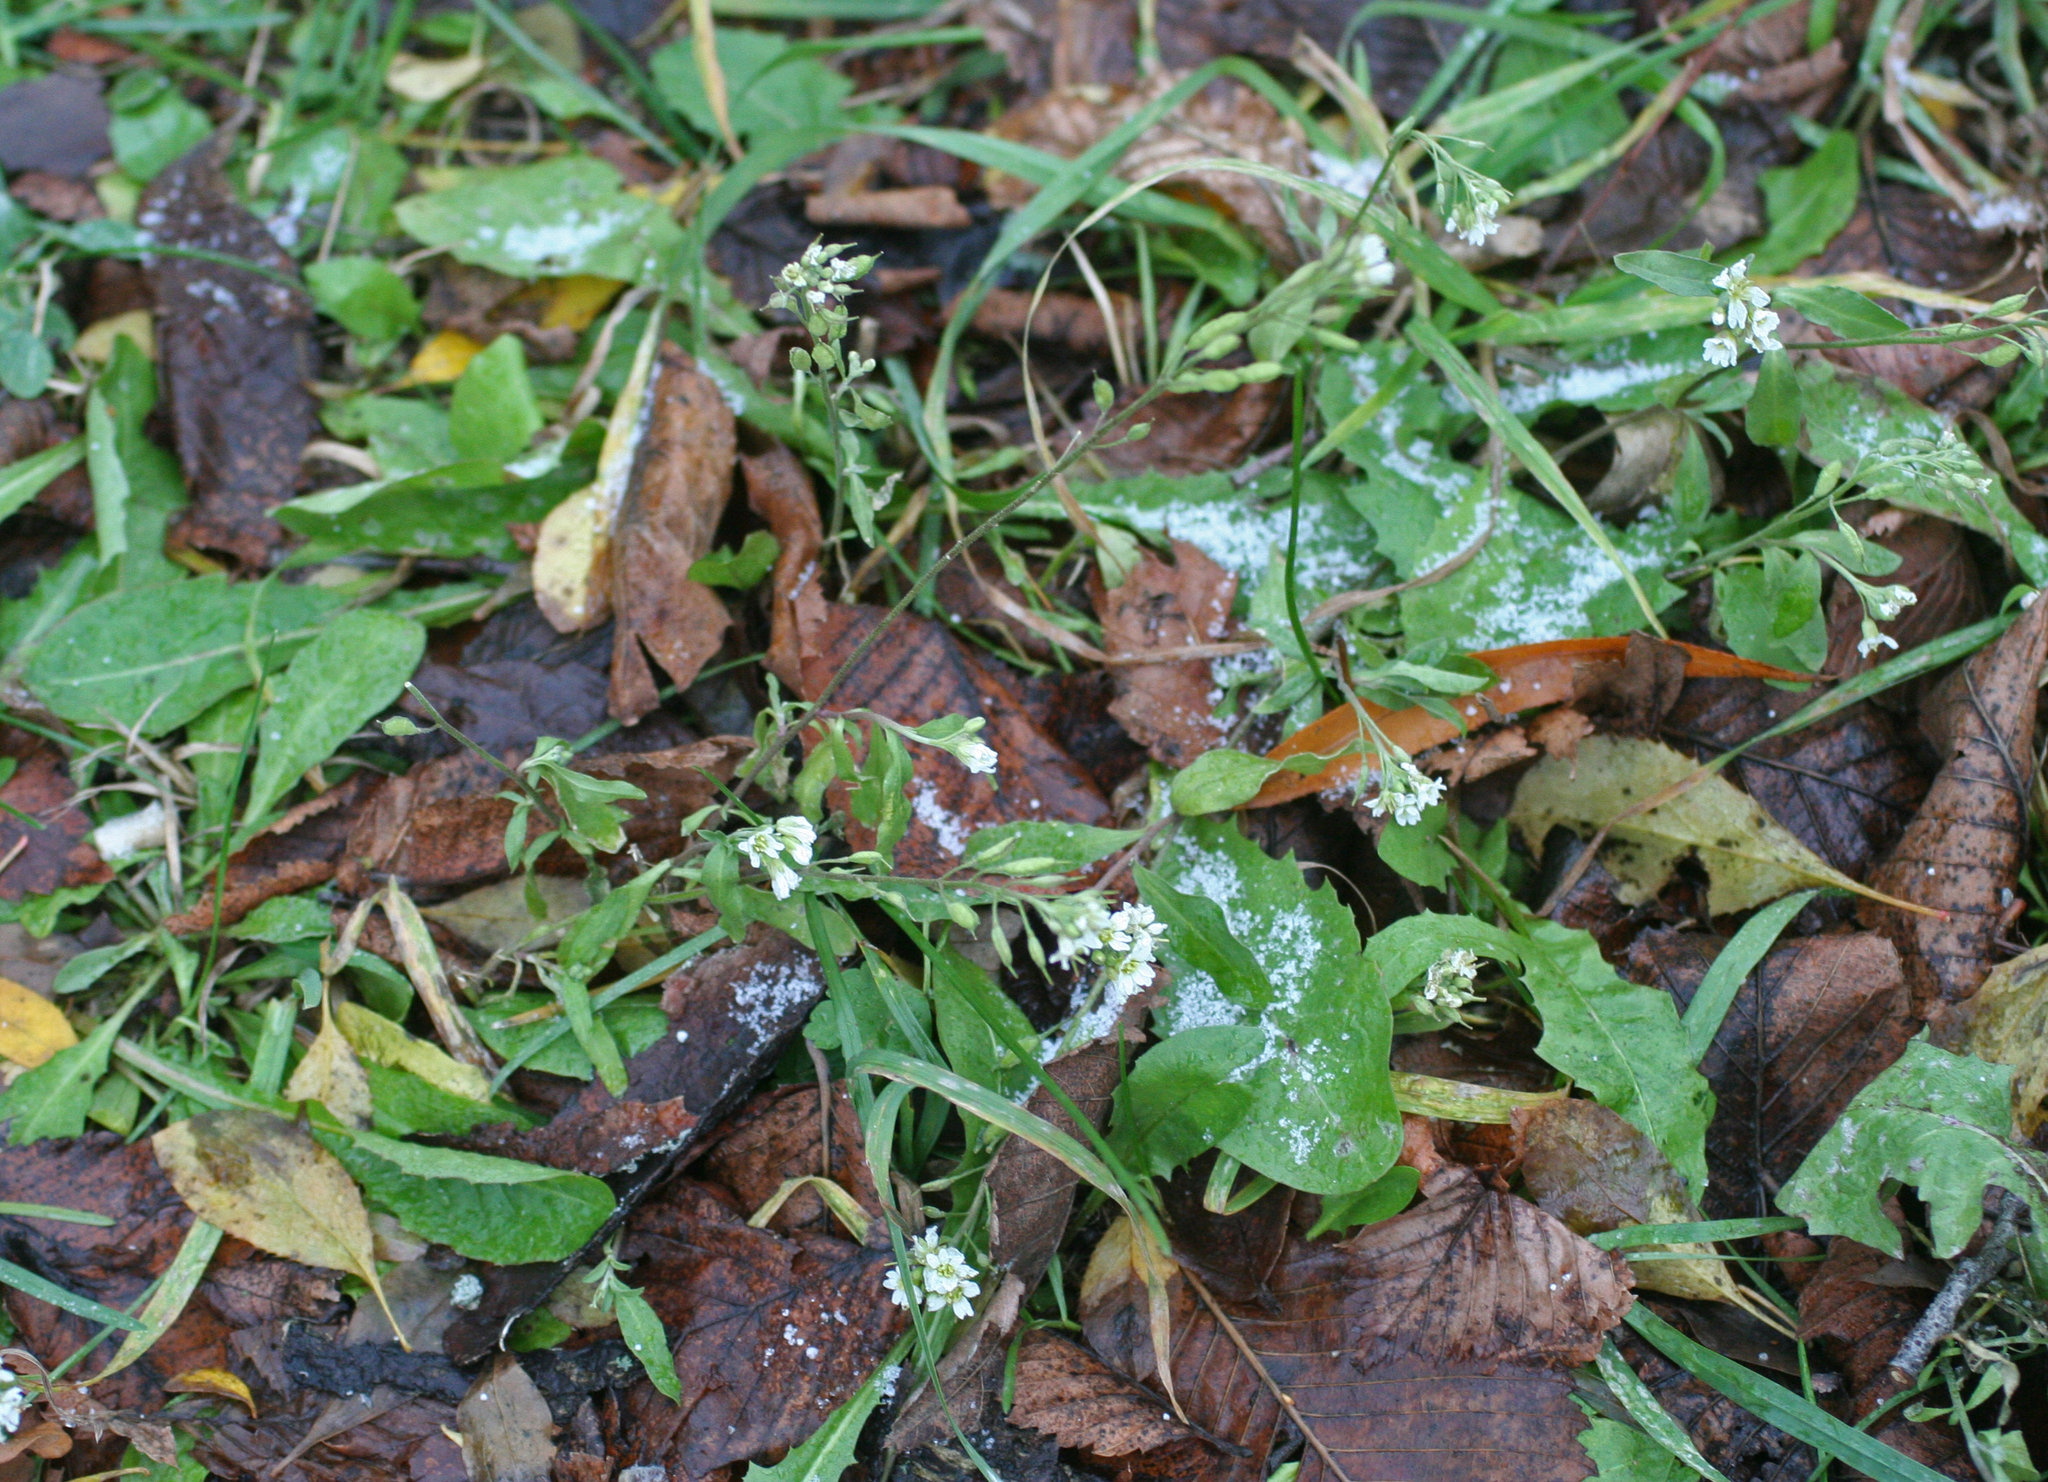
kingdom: Plantae
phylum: Tracheophyta
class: Magnoliopsida
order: Brassicales
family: Brassicaceae
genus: Berteroa
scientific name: Berteroa incana
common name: Hoary alison
